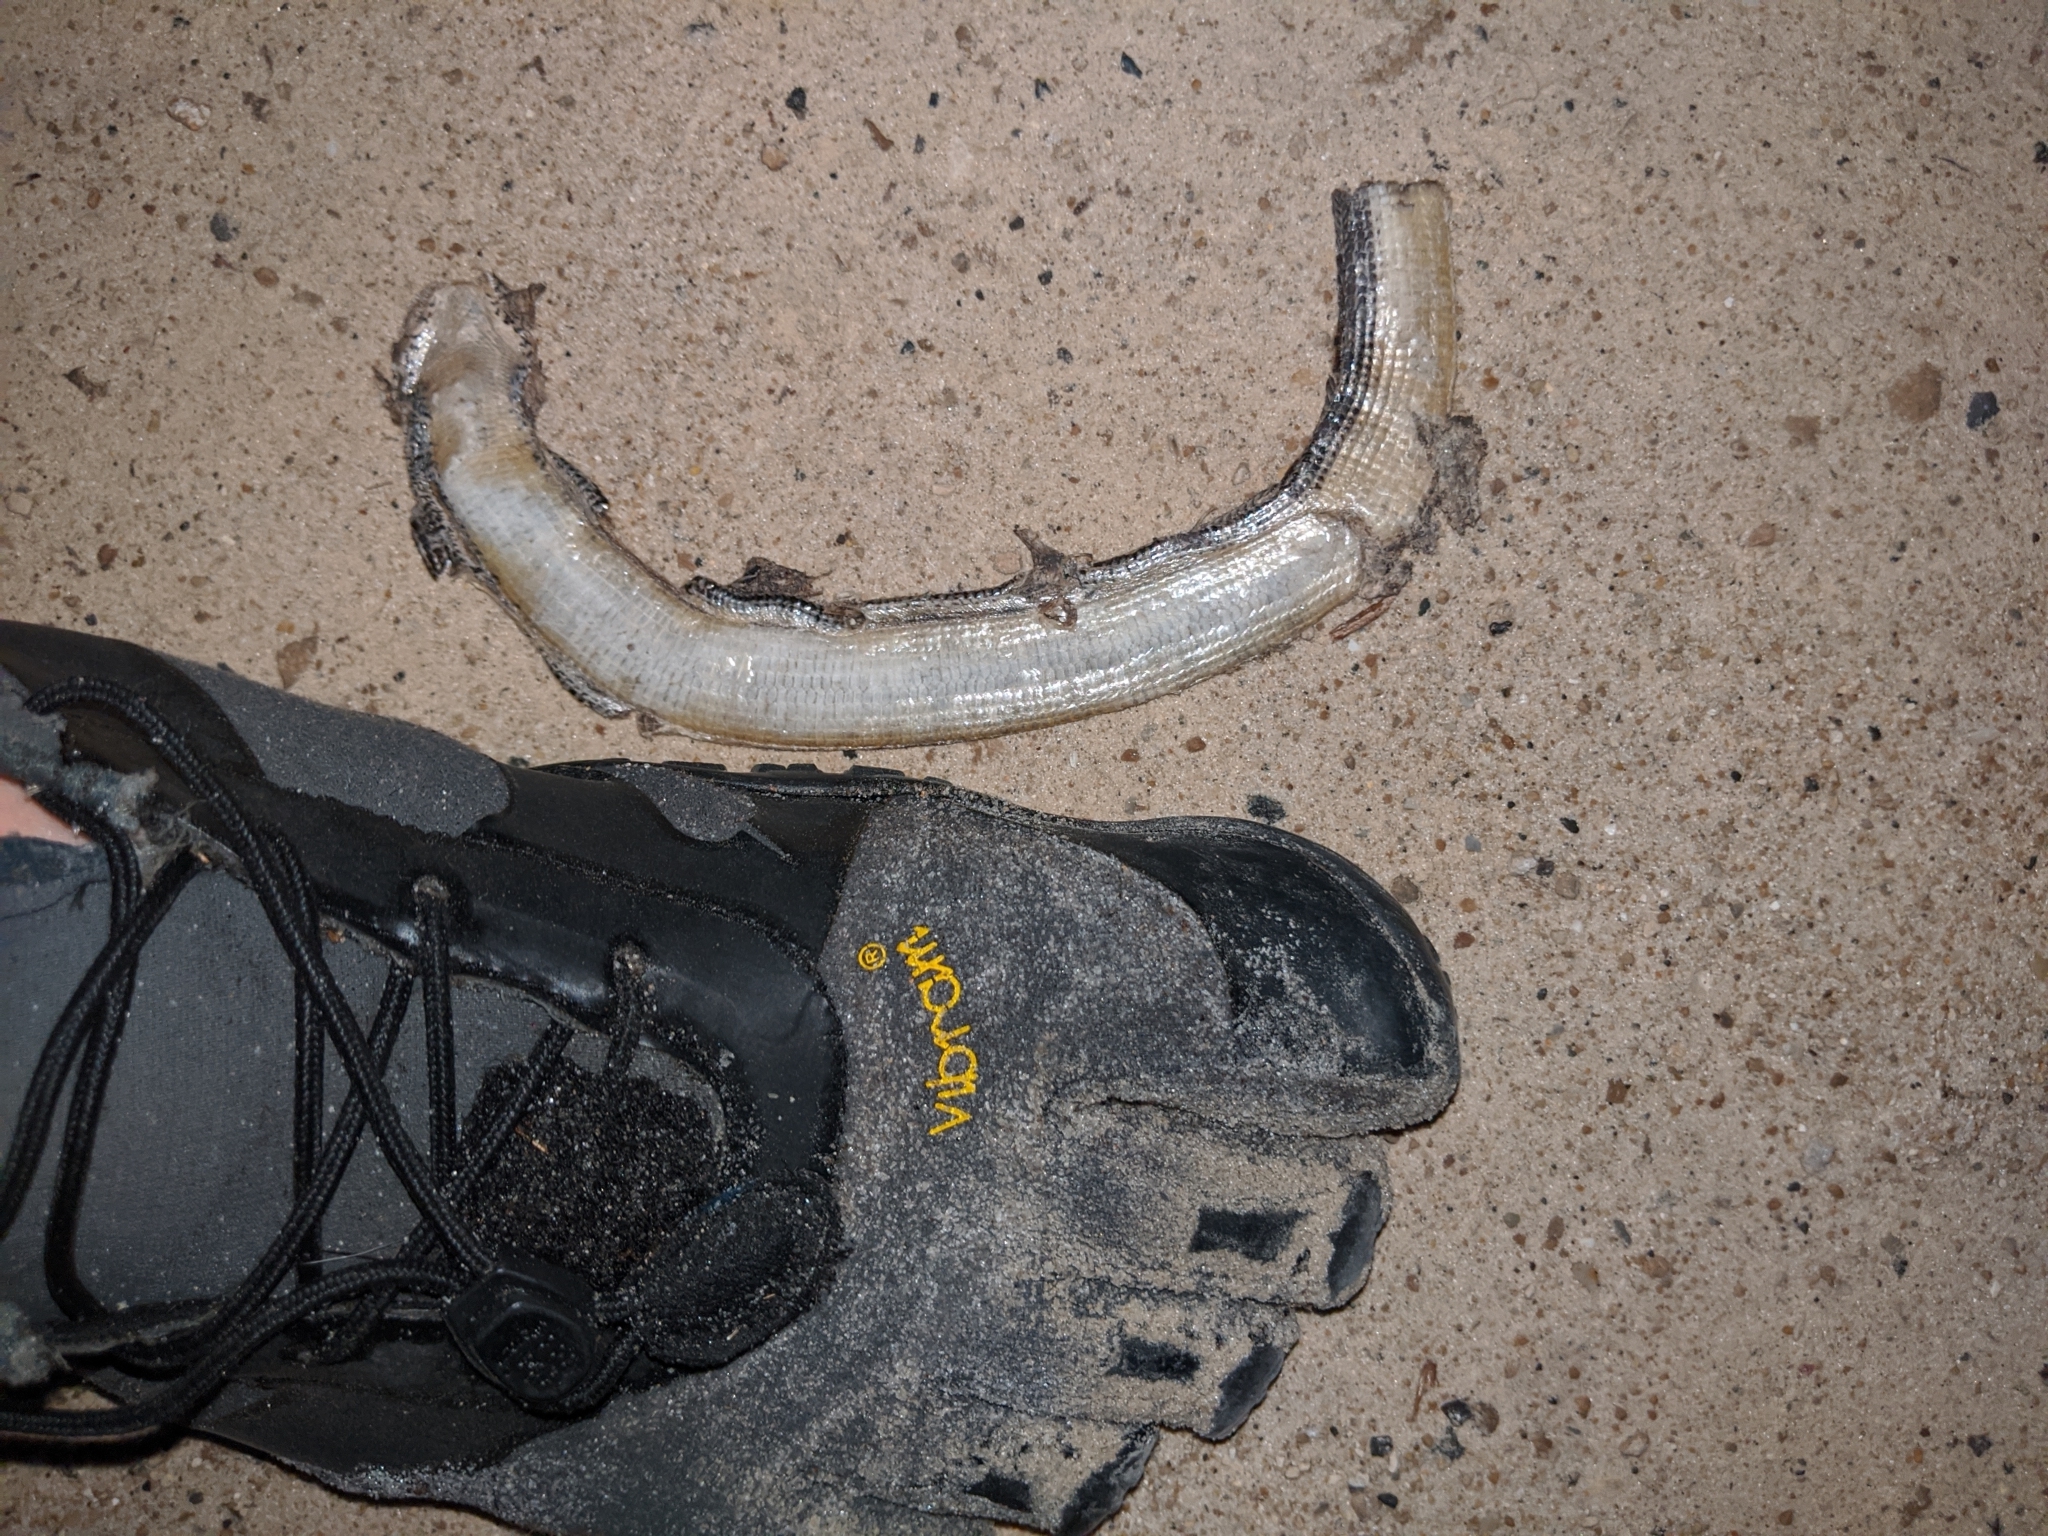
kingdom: Animalia
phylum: Chordata
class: Squamata
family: Anguidae
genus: Ophisaurus
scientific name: Ophisaurus ventralis
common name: Eastern glass lizard
